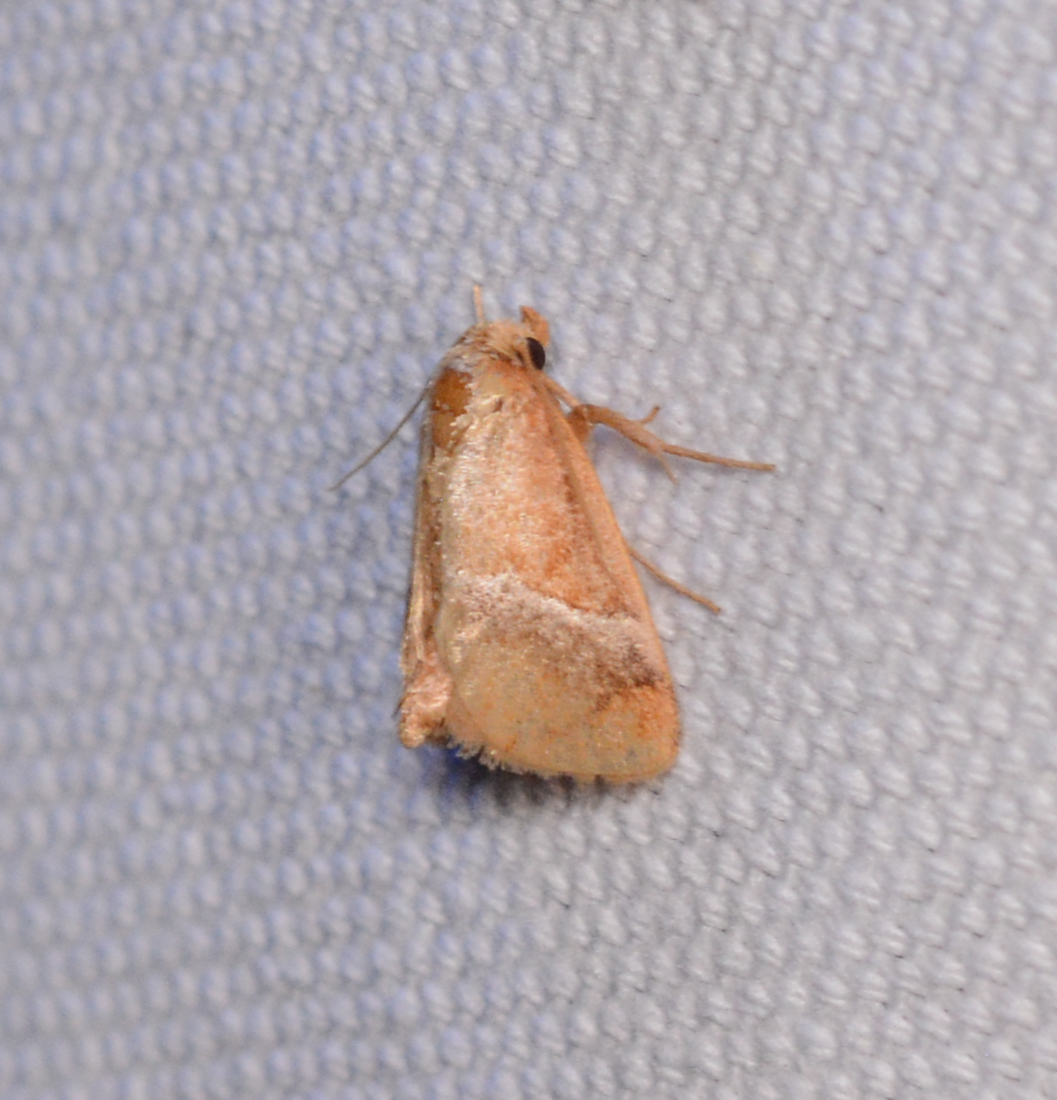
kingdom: Animalia
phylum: Arthropoda
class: Insecta
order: Lepidoptera
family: Limacodidae
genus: Lithacodes
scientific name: Lithacodes fasciola
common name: Yellow-shouldered slug moth
